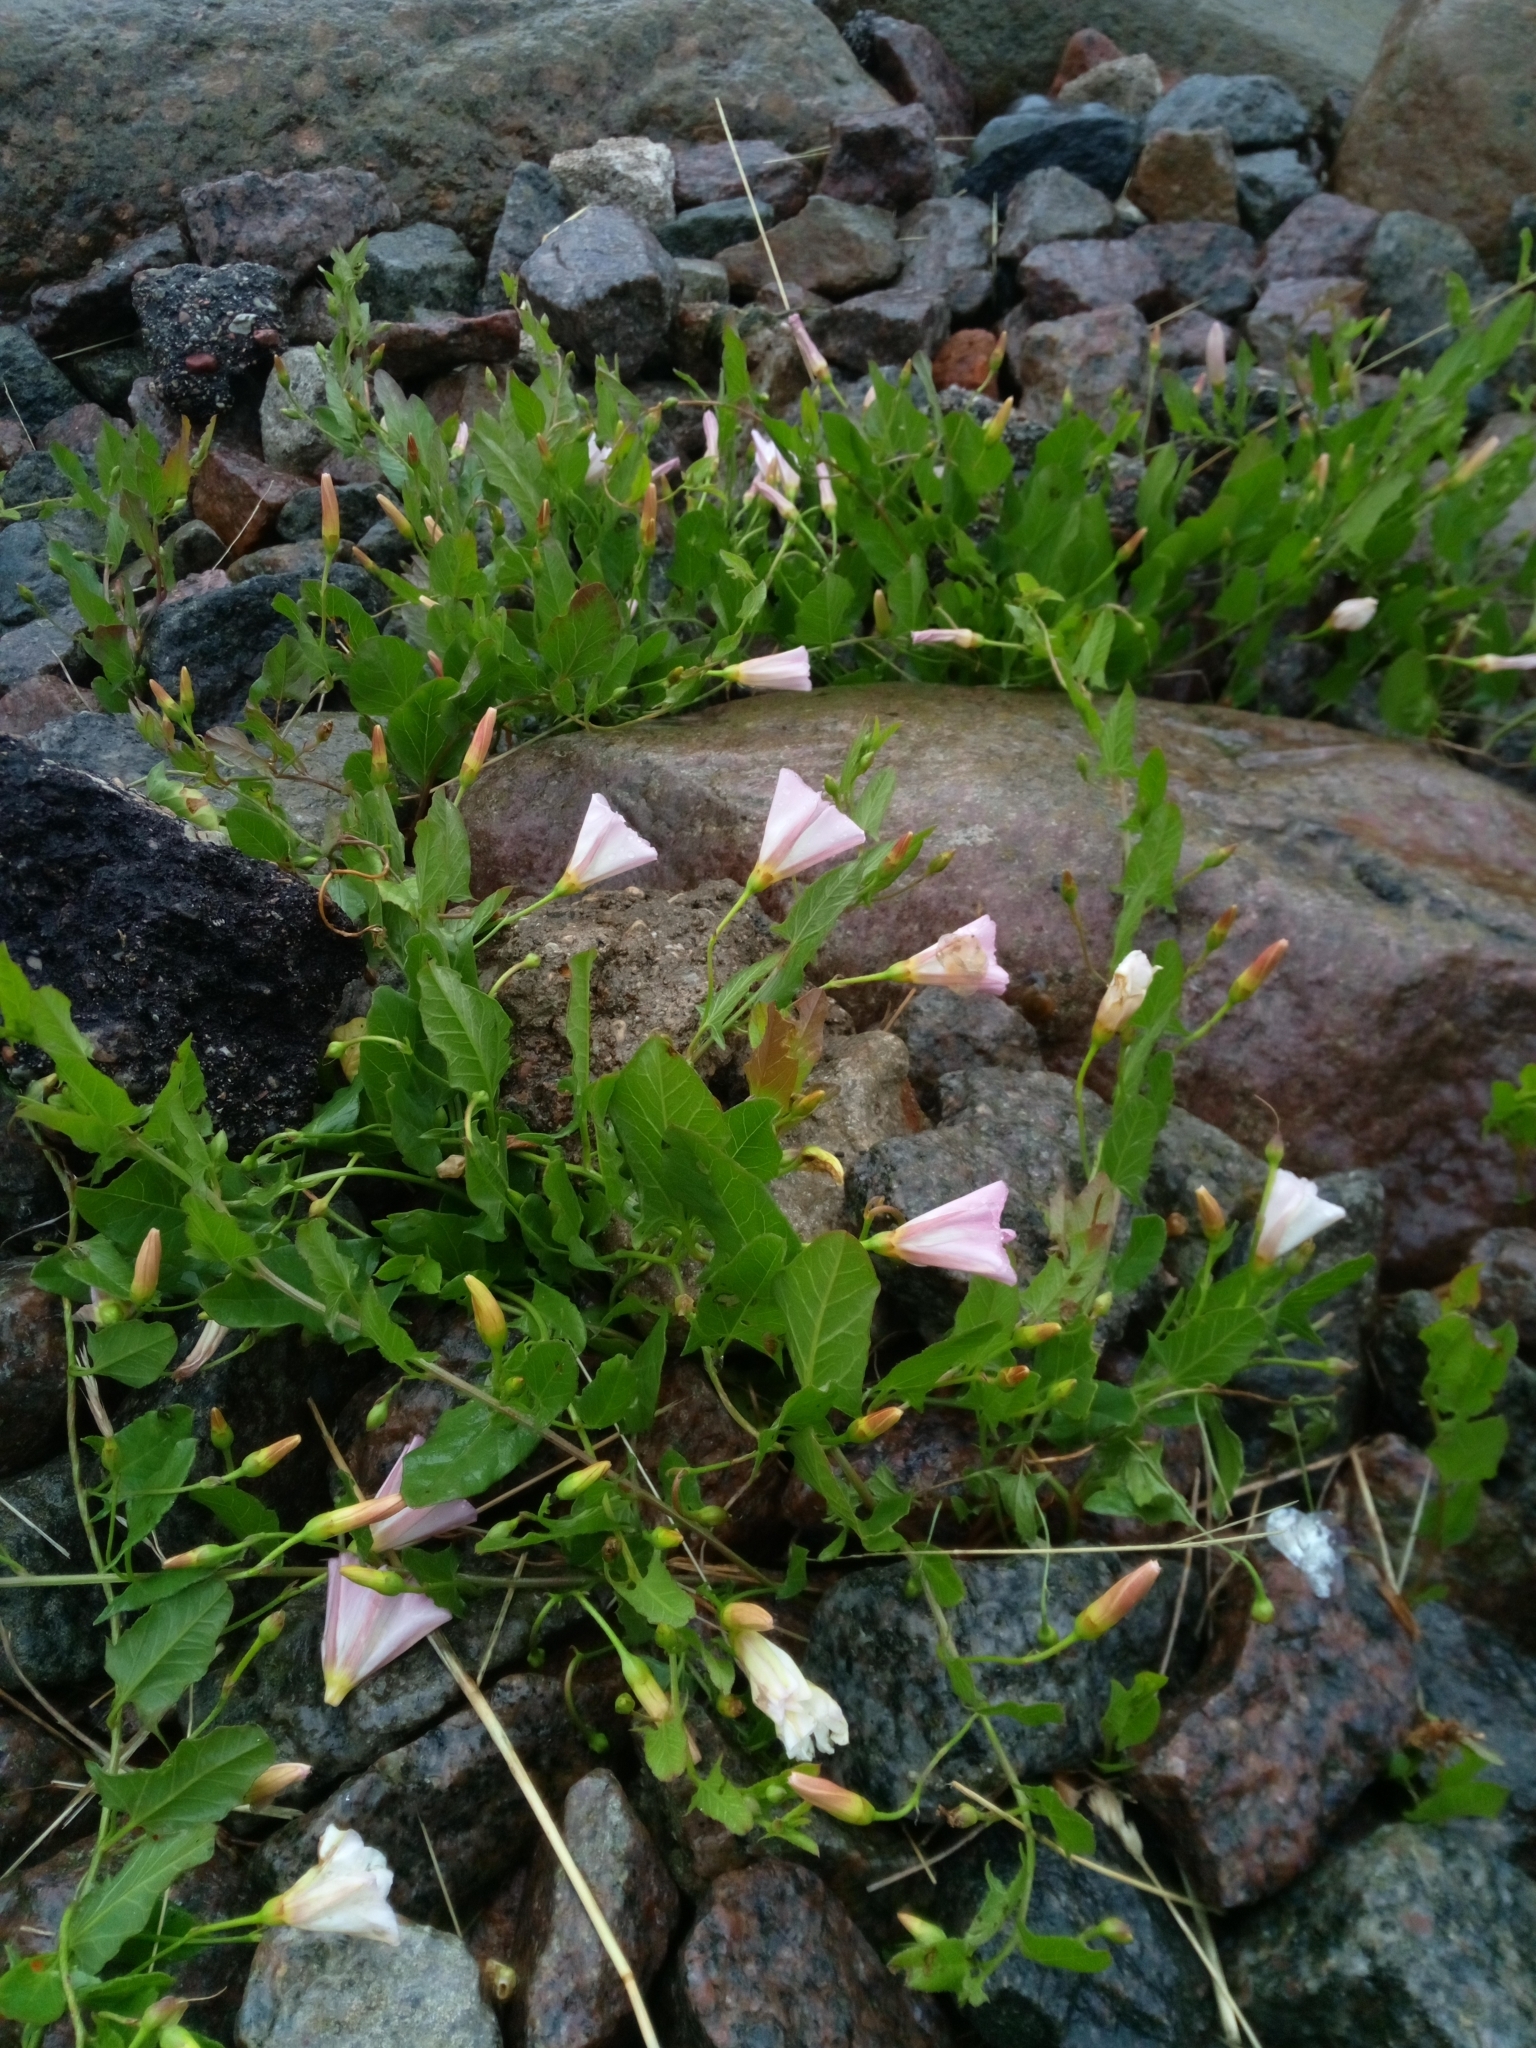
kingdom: Plantae
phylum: Tracheophyta
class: Magnoliopsida
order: Solanales
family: Convolvulaceae
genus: Convolvulus
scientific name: Convolvulus arvensis
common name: Field bindweed
